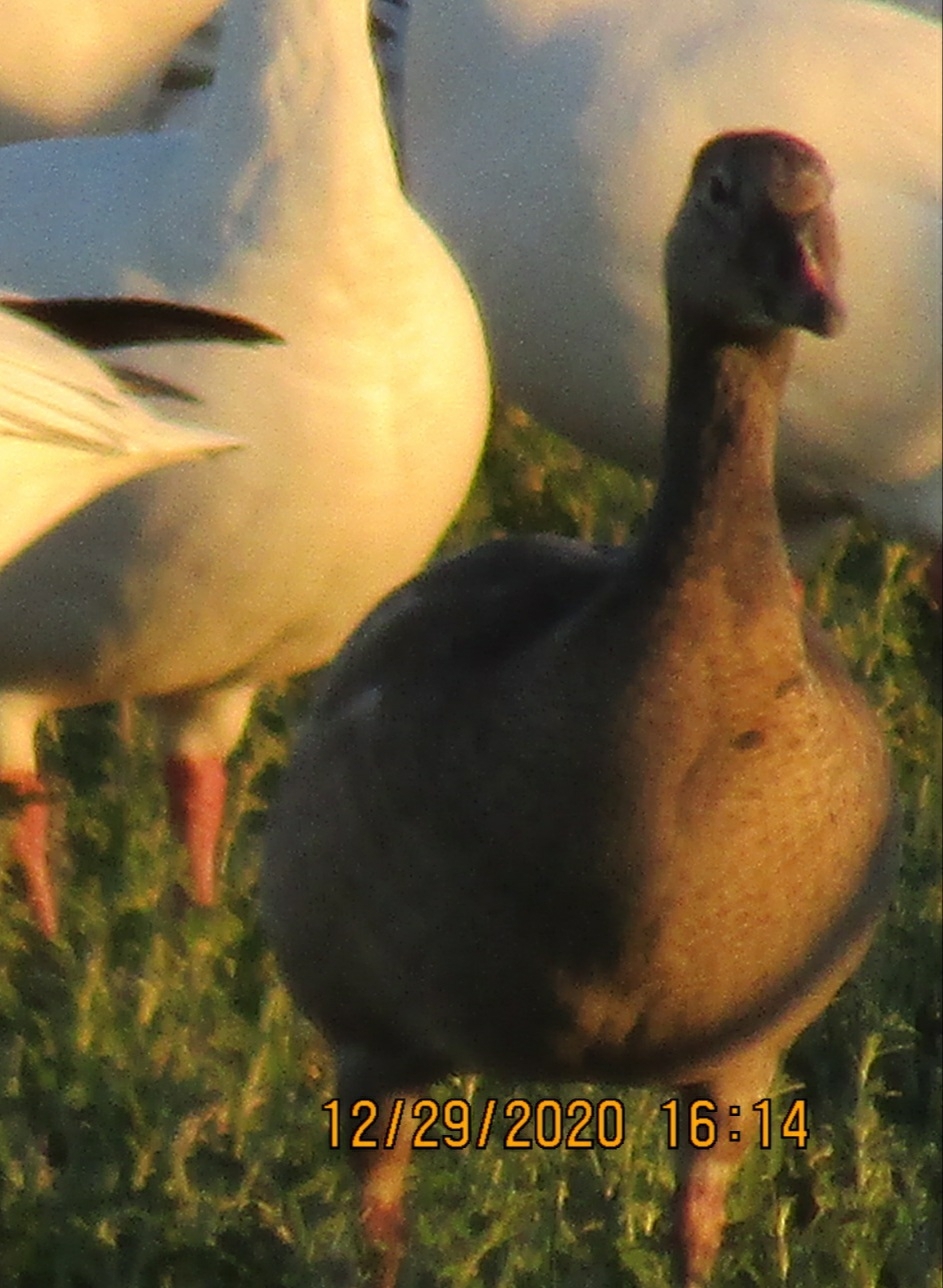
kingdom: Animalia
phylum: Chordata
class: Aves
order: Anseriformes
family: Anatidae
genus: Anser
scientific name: Anser caerulescens
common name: Snow goose
